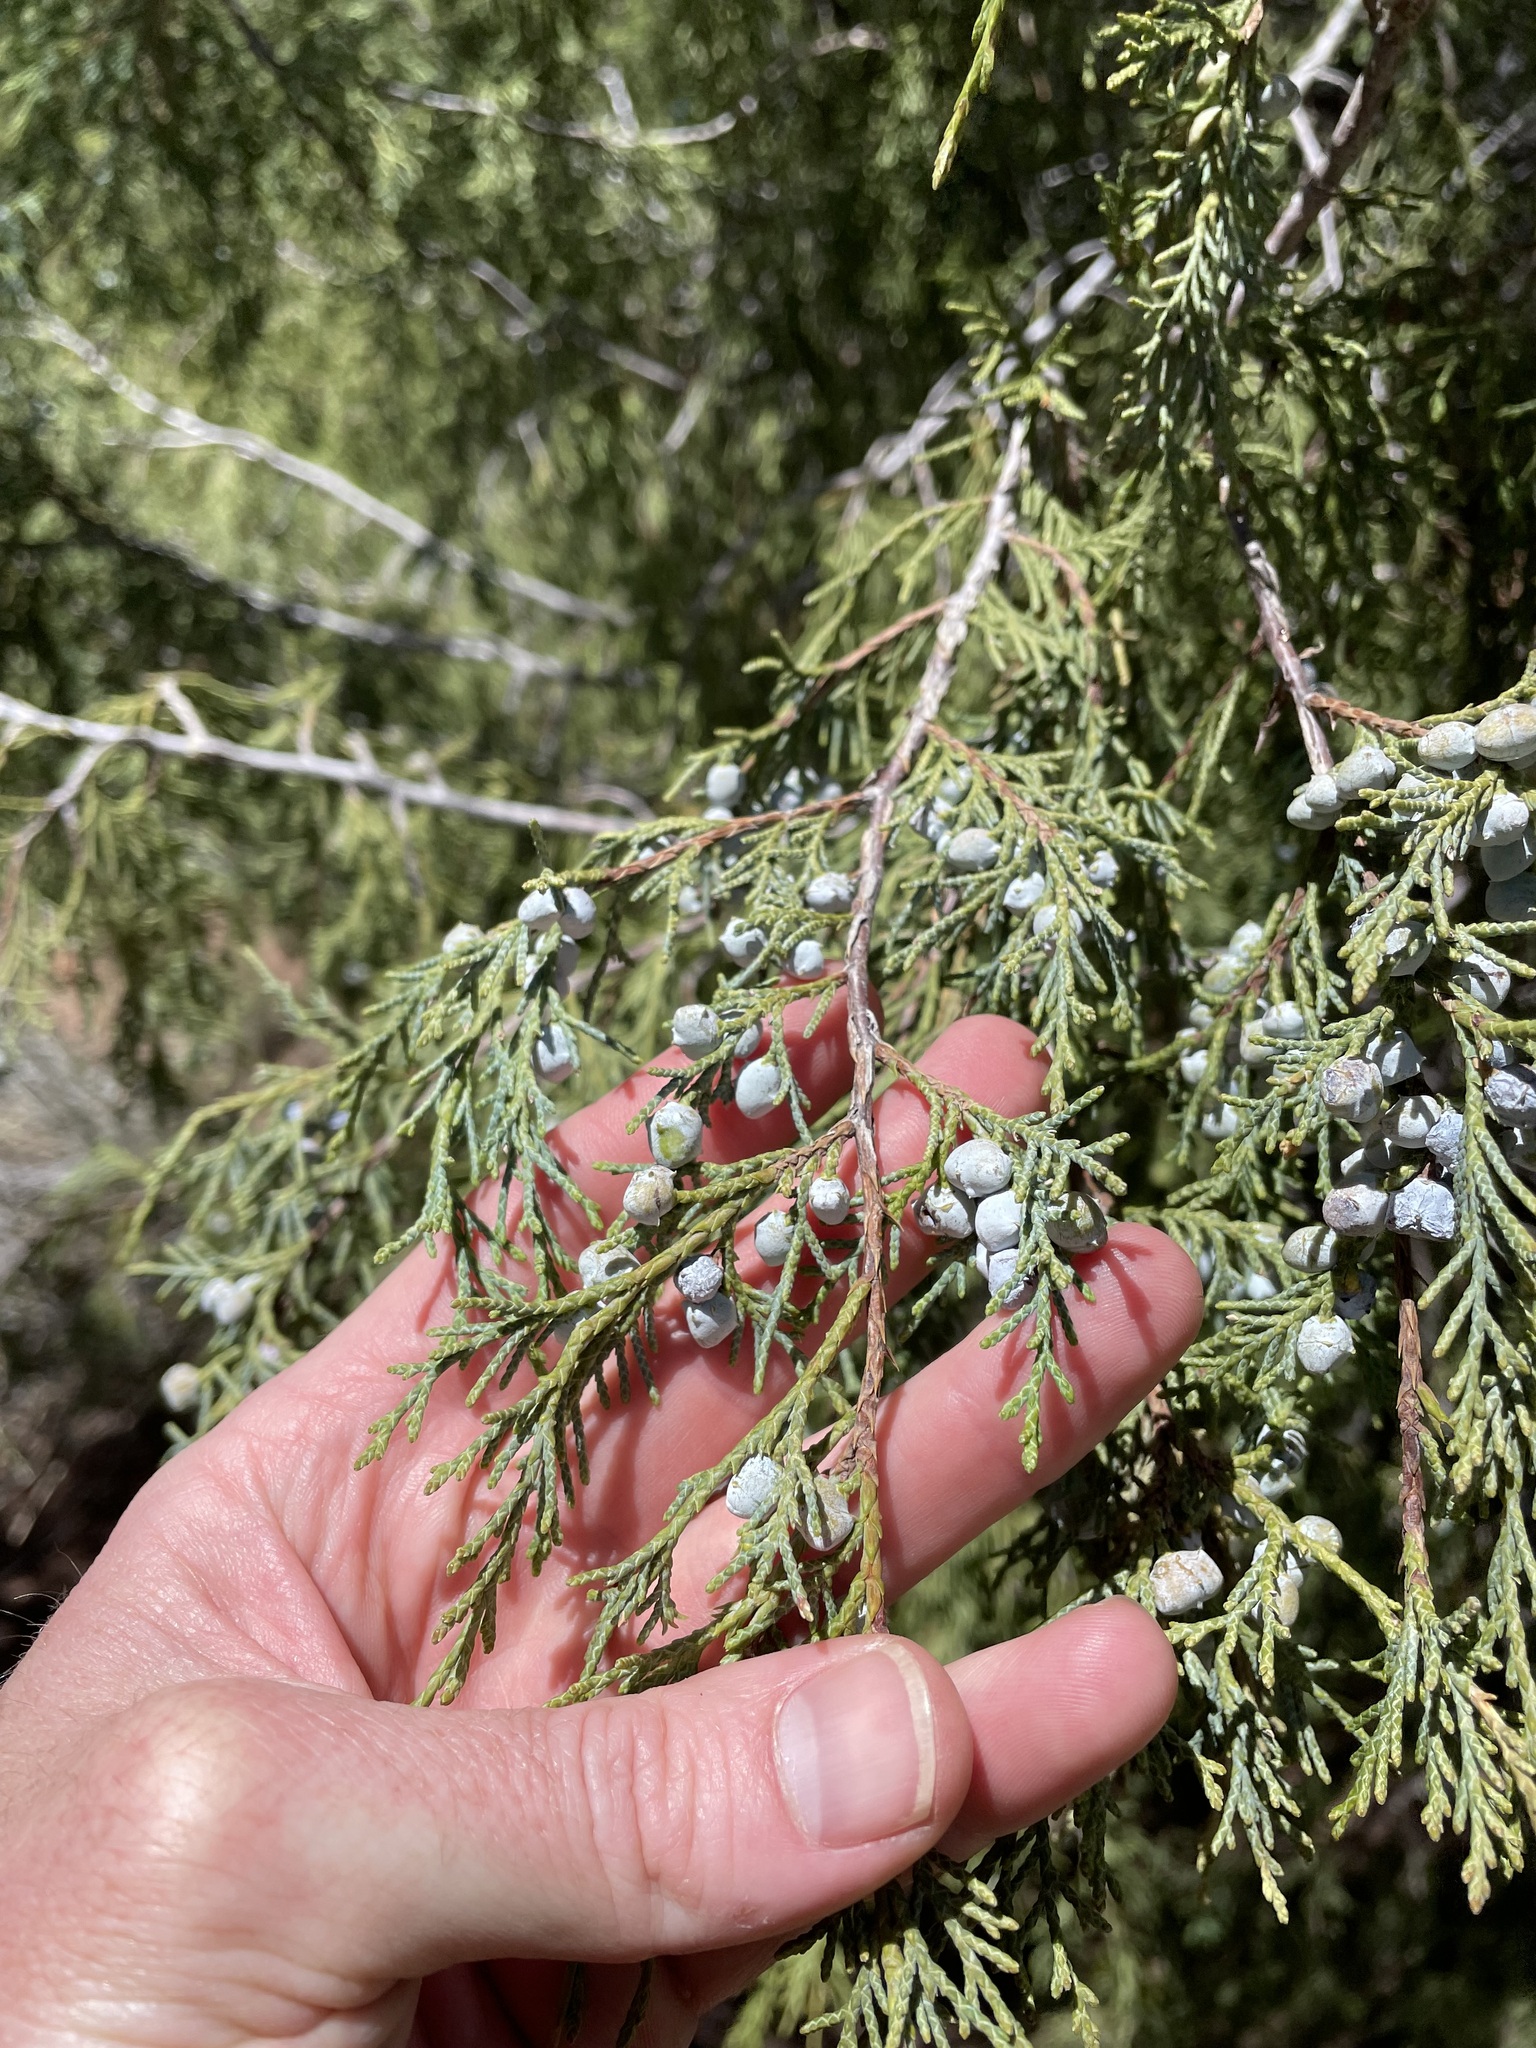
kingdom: Plantae
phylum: Tracheophyta
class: Pinopsida
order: Pinales
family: Cupressaceae
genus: Juniperus
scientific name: Juniperus scopulorum
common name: Rocky mountain juniper
